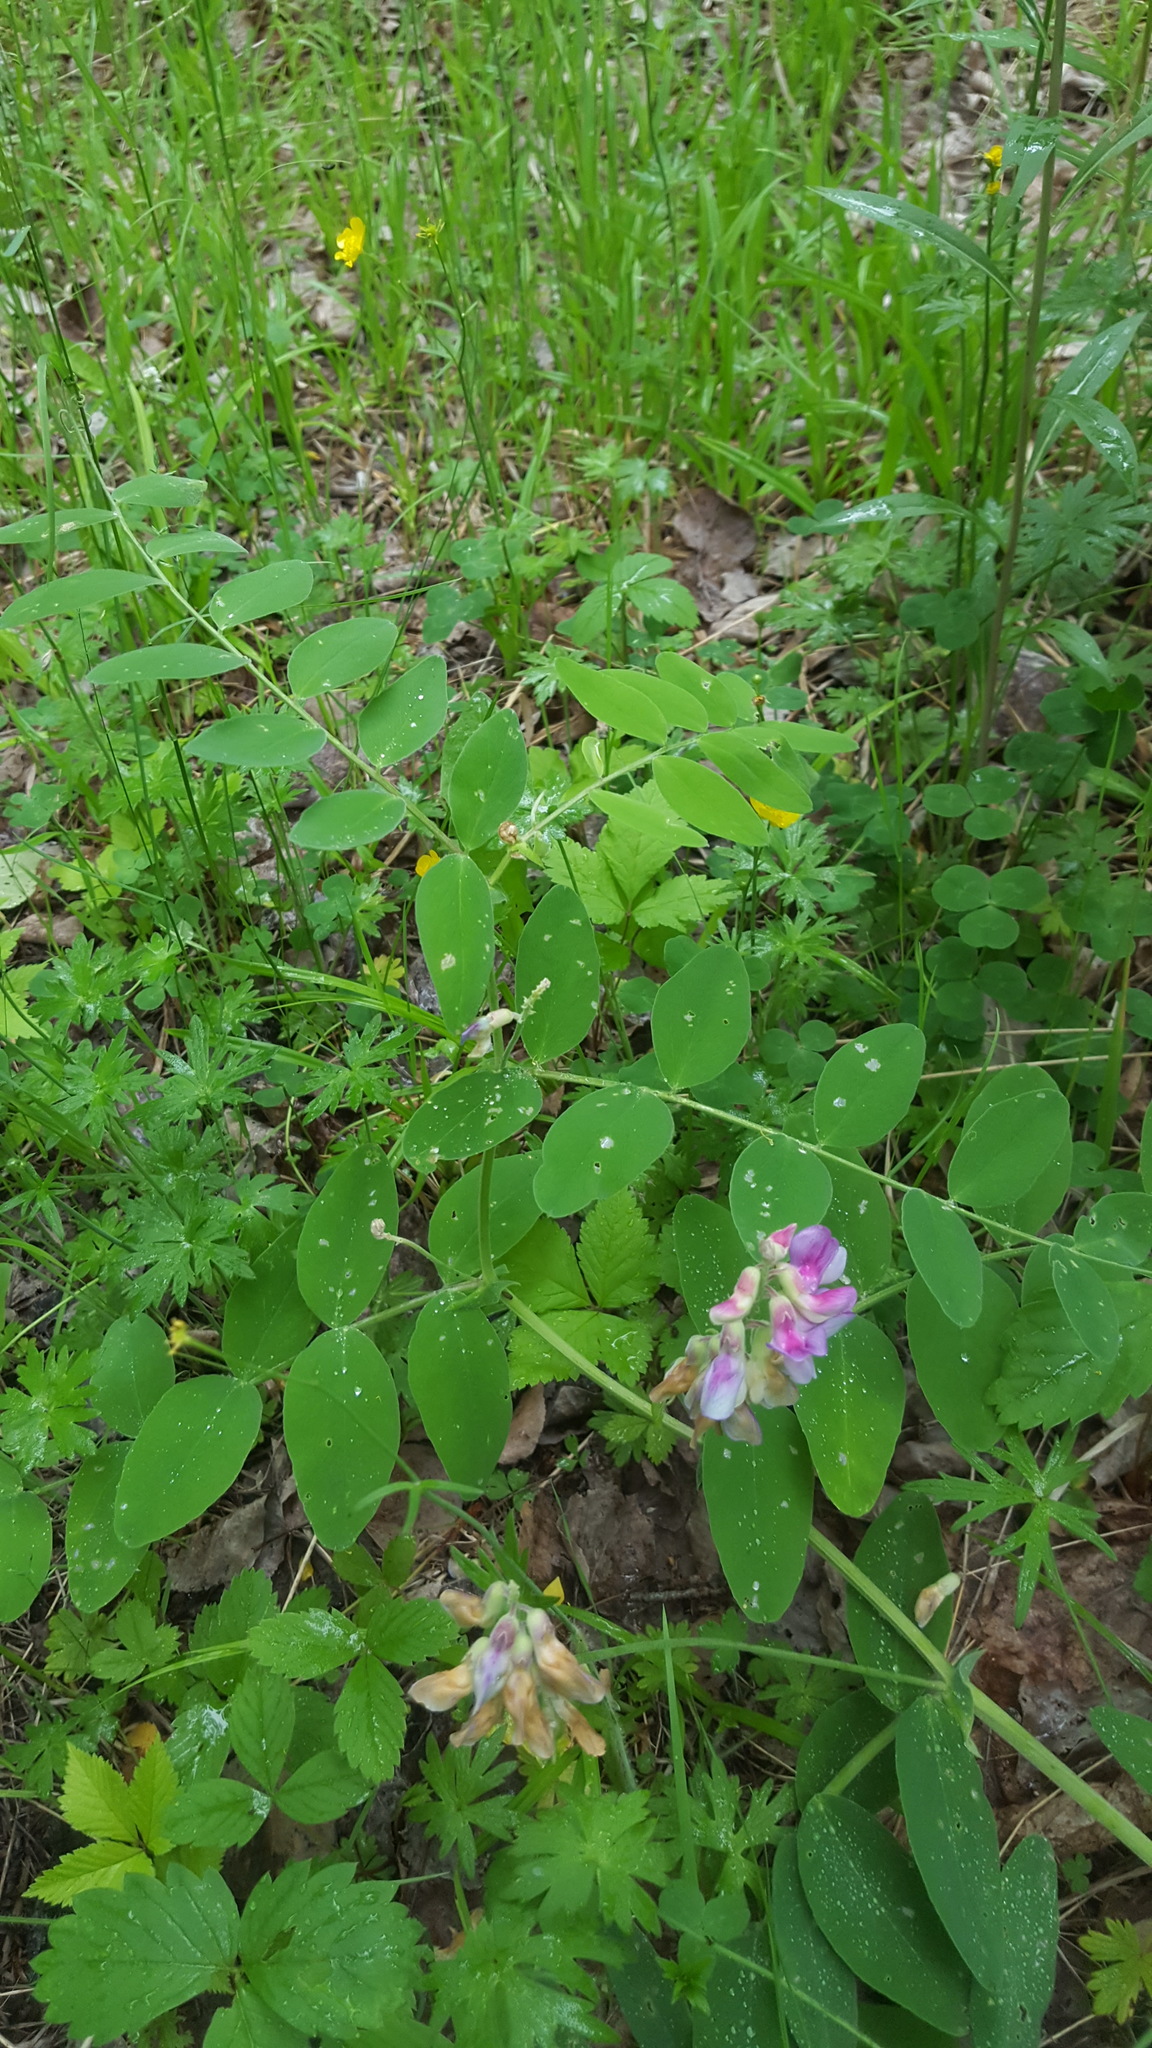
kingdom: Plantae
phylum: Tracheophyta
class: Magnoliopsida
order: Fabales
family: Fabaceae
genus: Lathyrus
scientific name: Lathyrus venosus
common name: Forest-pea
